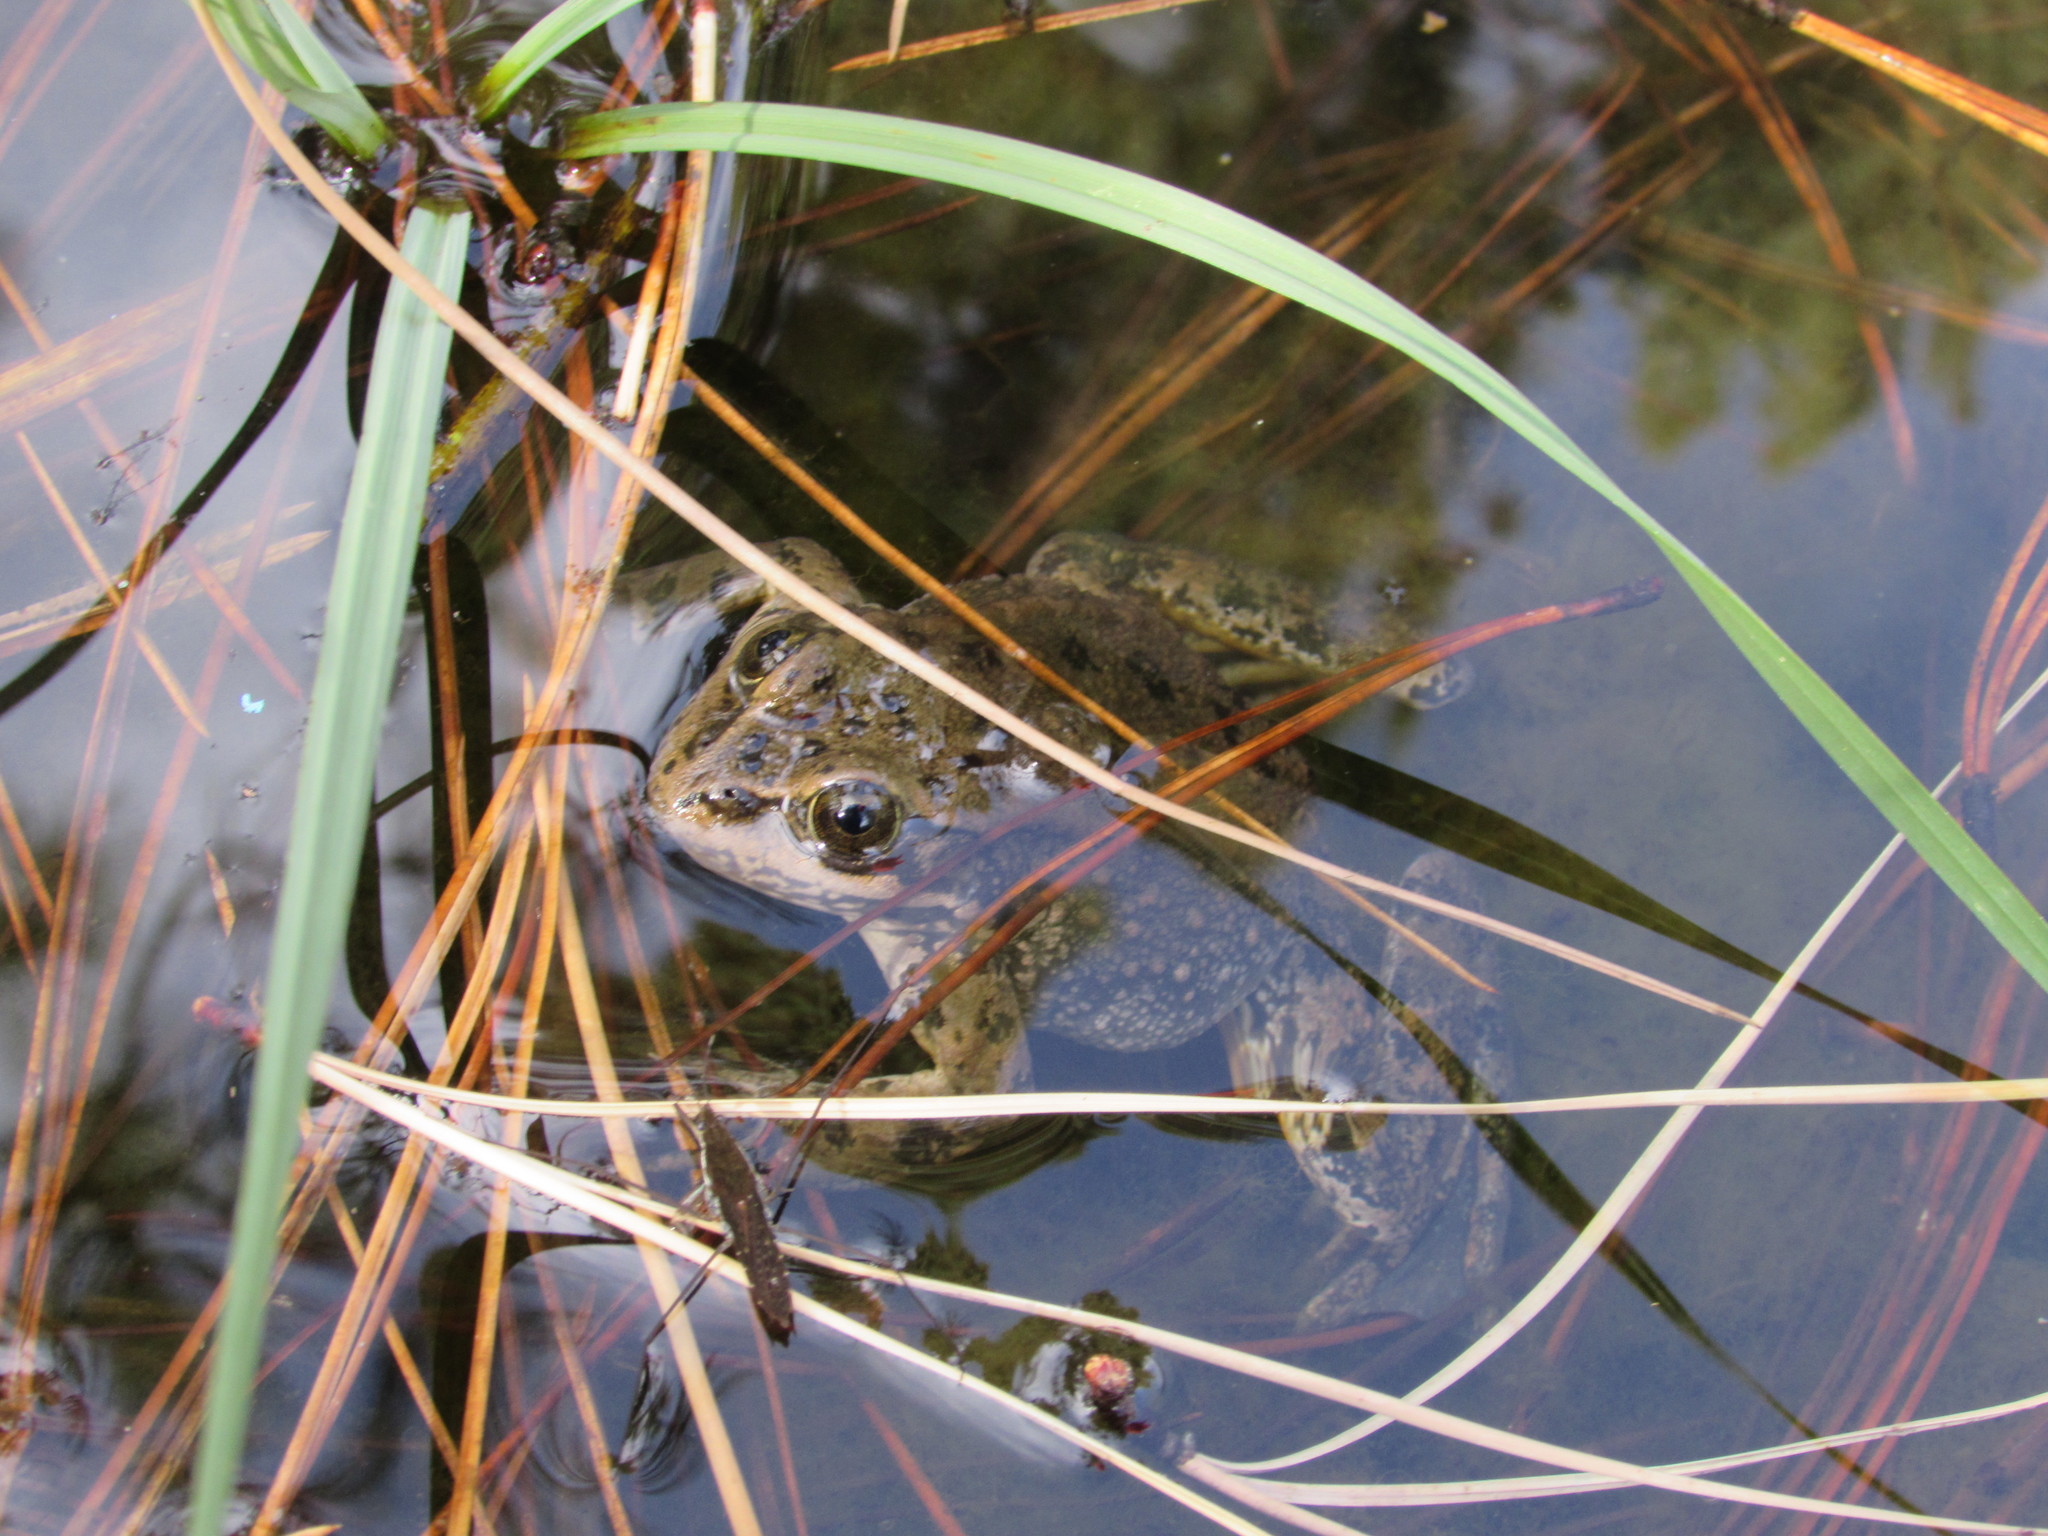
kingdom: Animalia
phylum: Chordata
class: Amphibia
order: Anura
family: Ranidae
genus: Rana
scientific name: Rana luteiventris
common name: Columbia spotted frog
